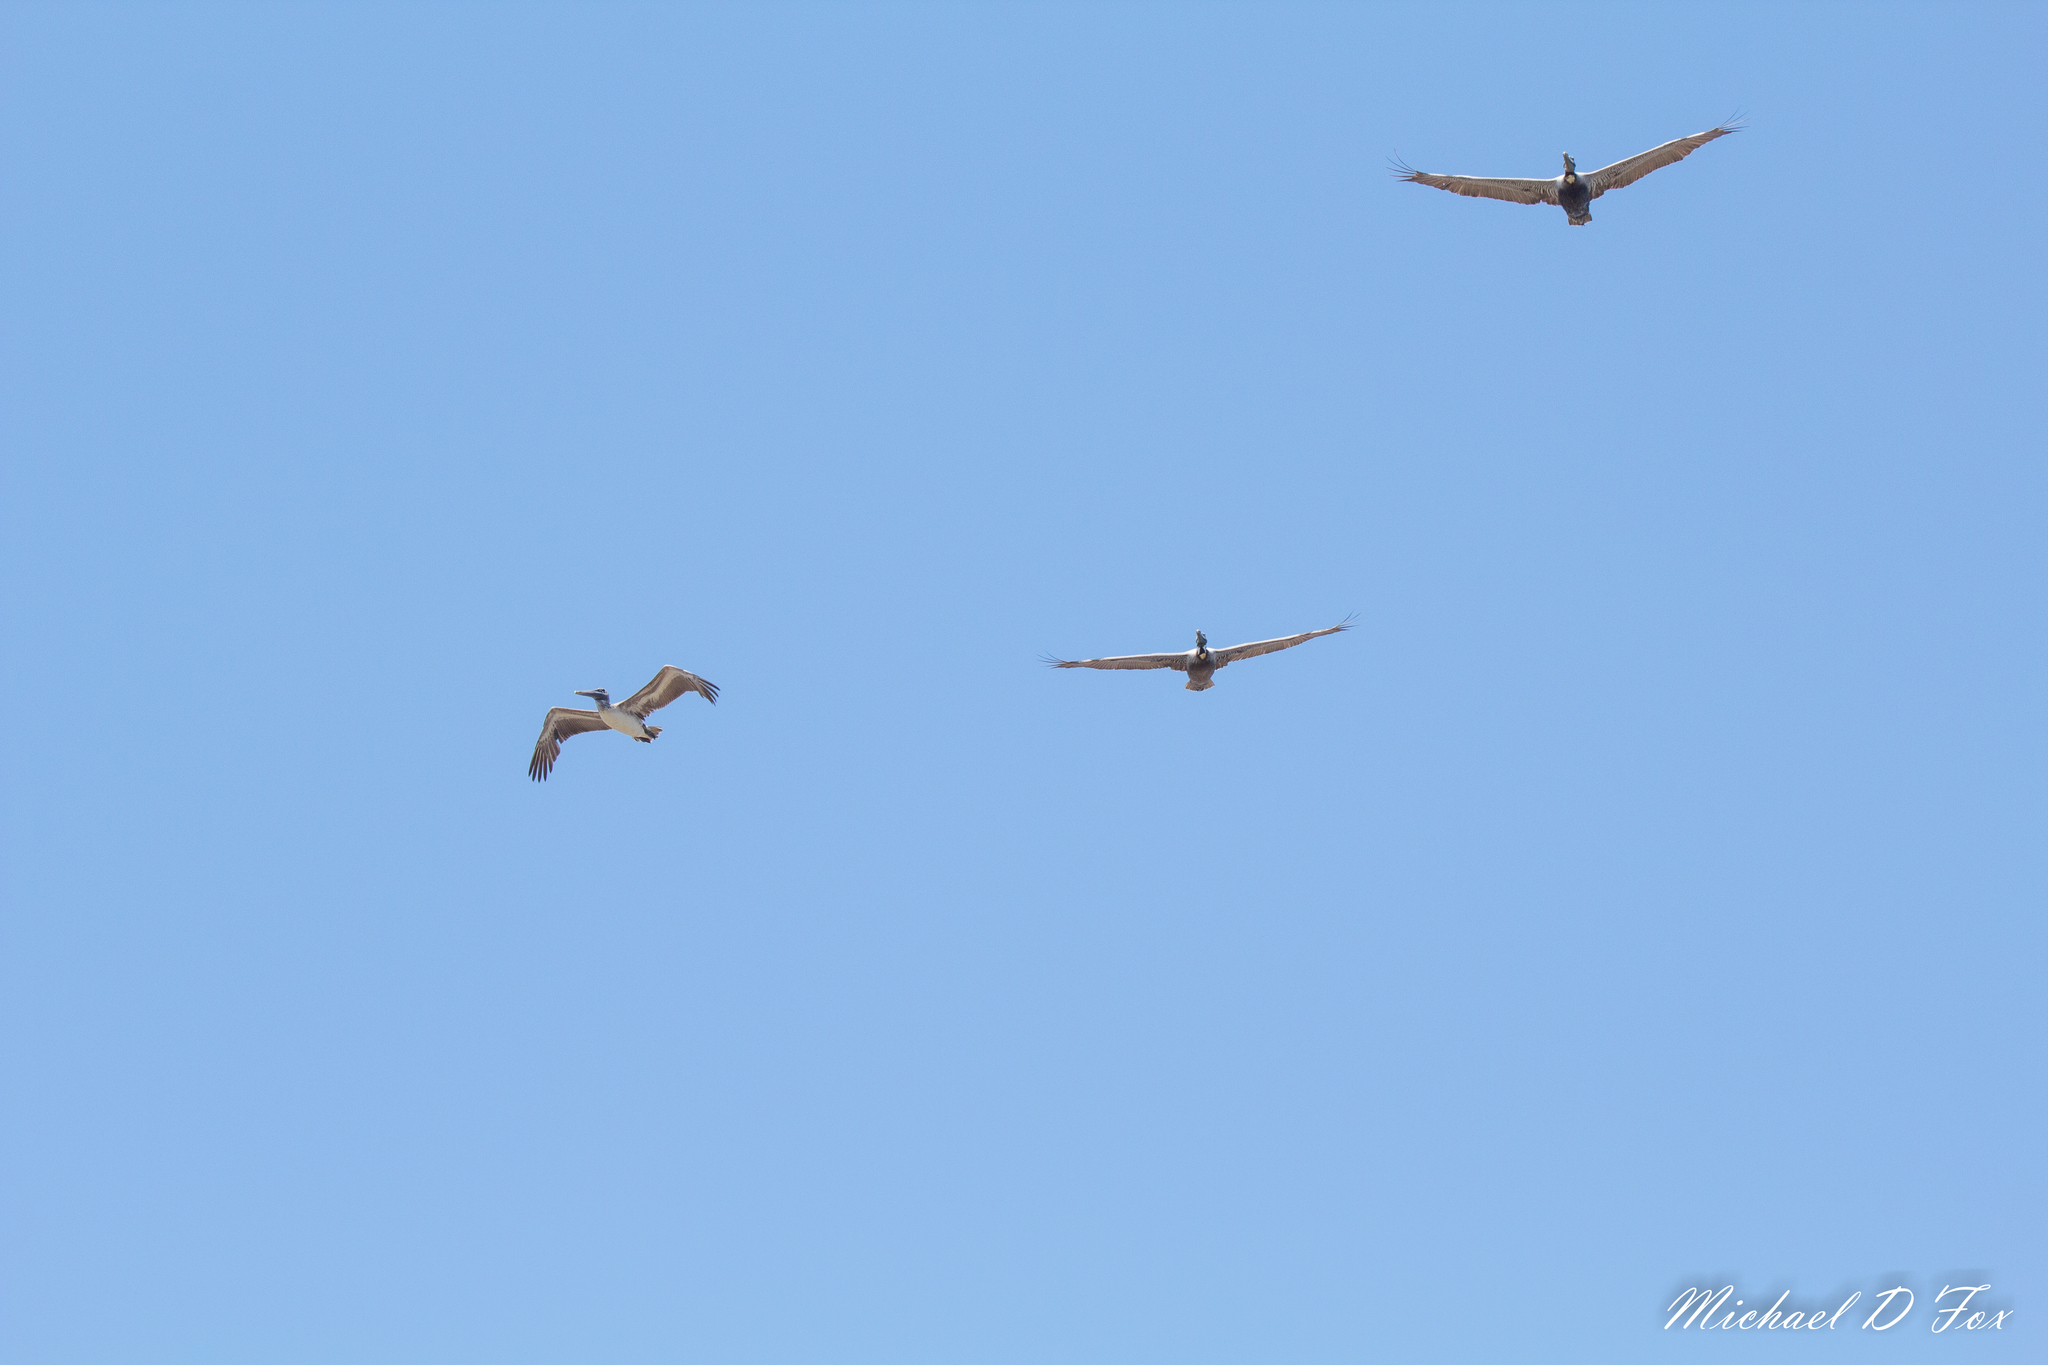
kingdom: Animalia
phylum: Chordata
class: Aves
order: Pelecaniformes
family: Pelecanidae
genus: Pelecanus
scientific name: Pelecanus occidentalis
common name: Brown pelican
